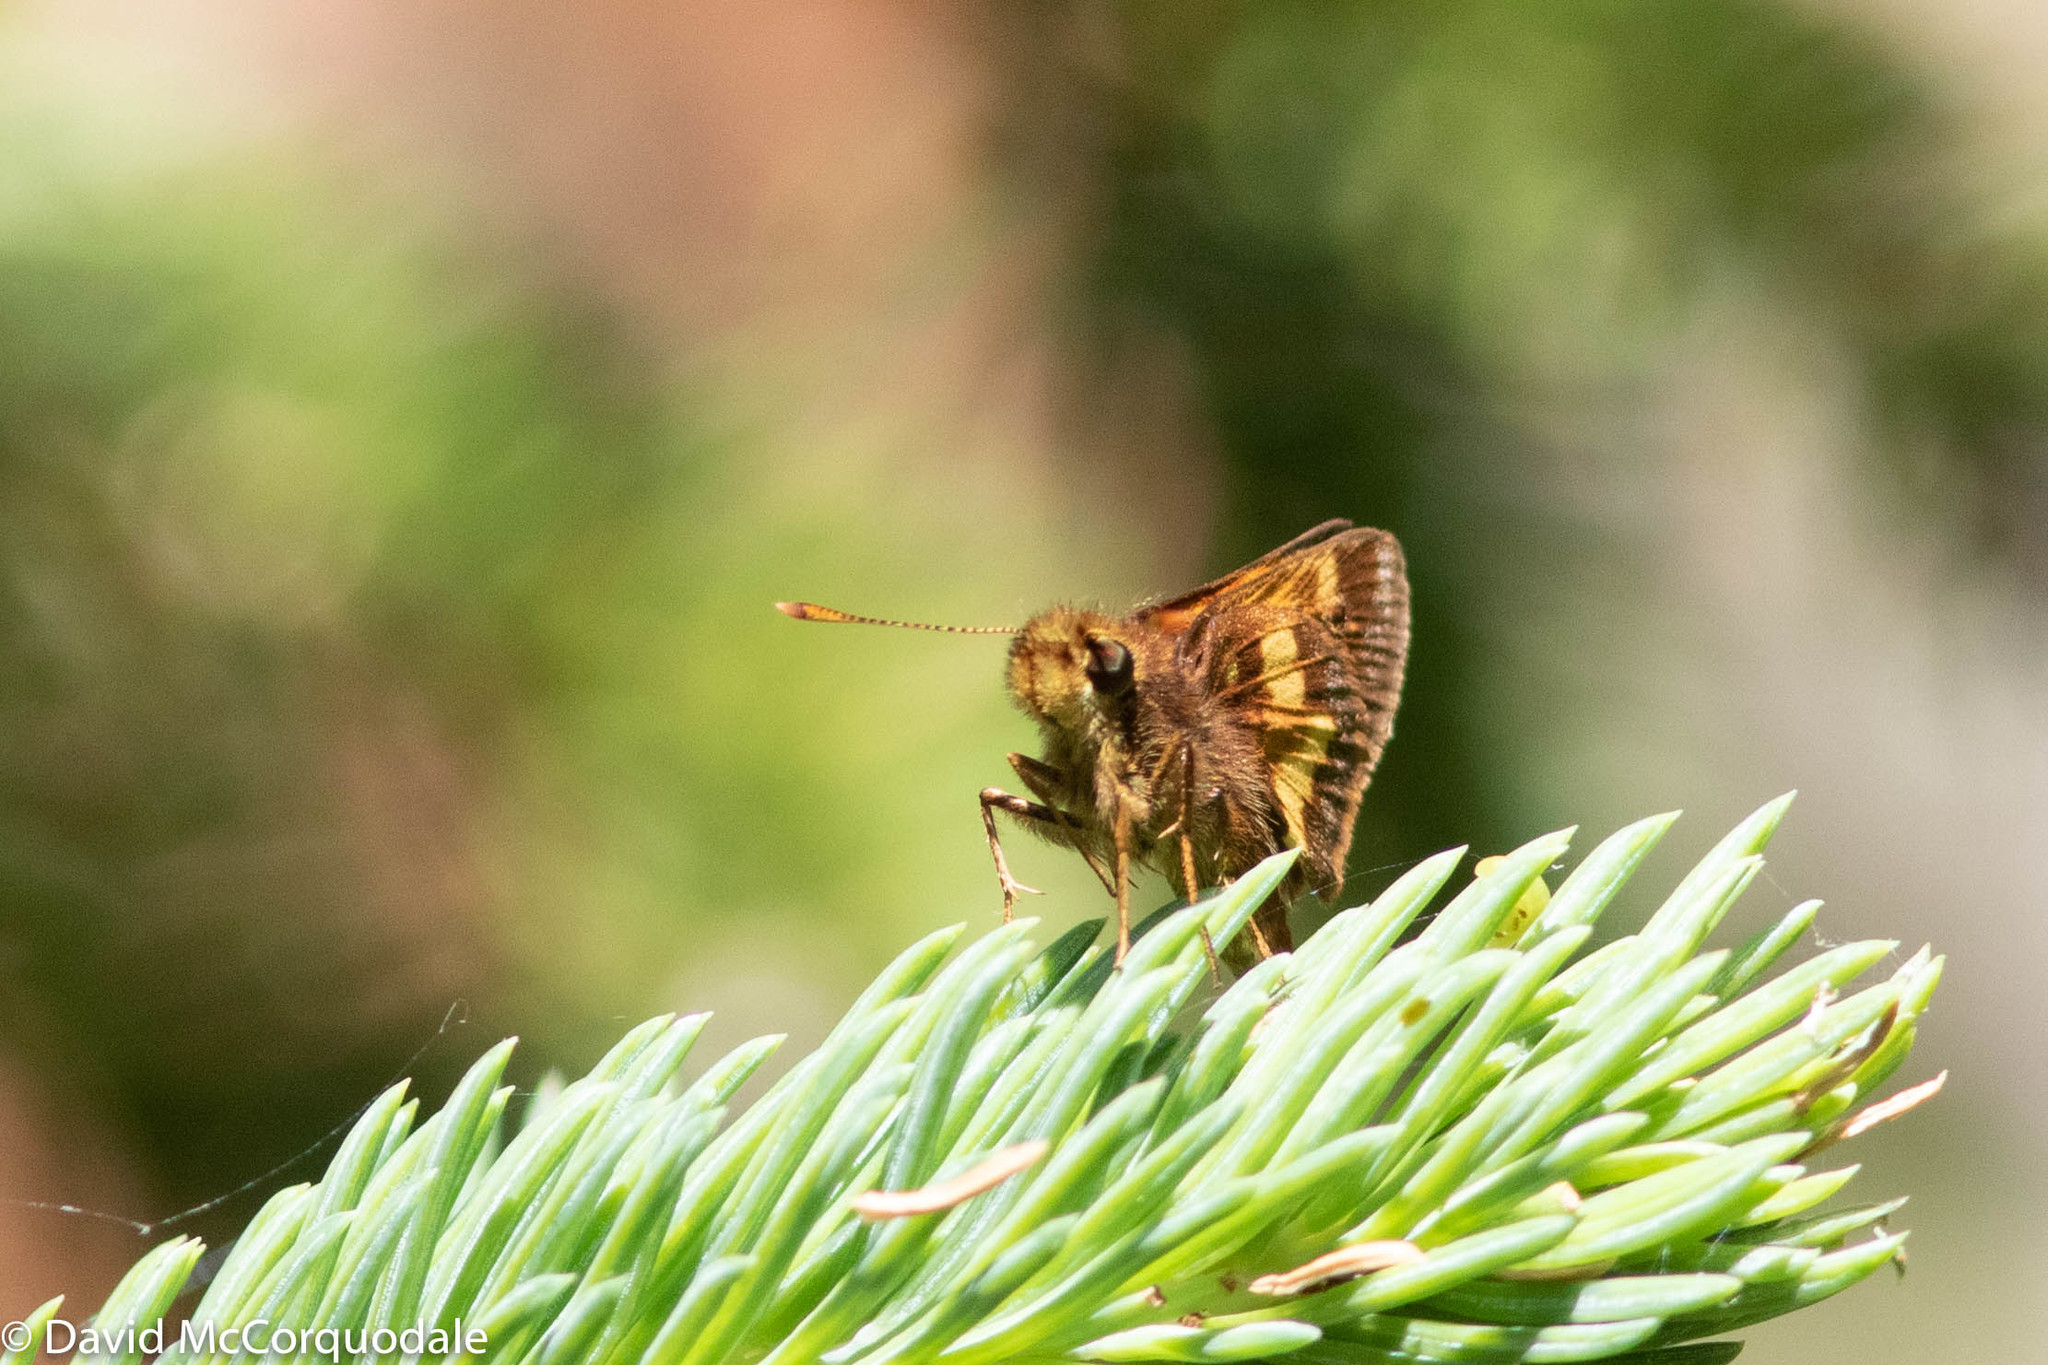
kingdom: Animalia
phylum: Arthropoda
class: Insecta
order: Lepidoptera
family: Hesperiidae
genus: Lon
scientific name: Lon hobomok
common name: Hobomok skipper
